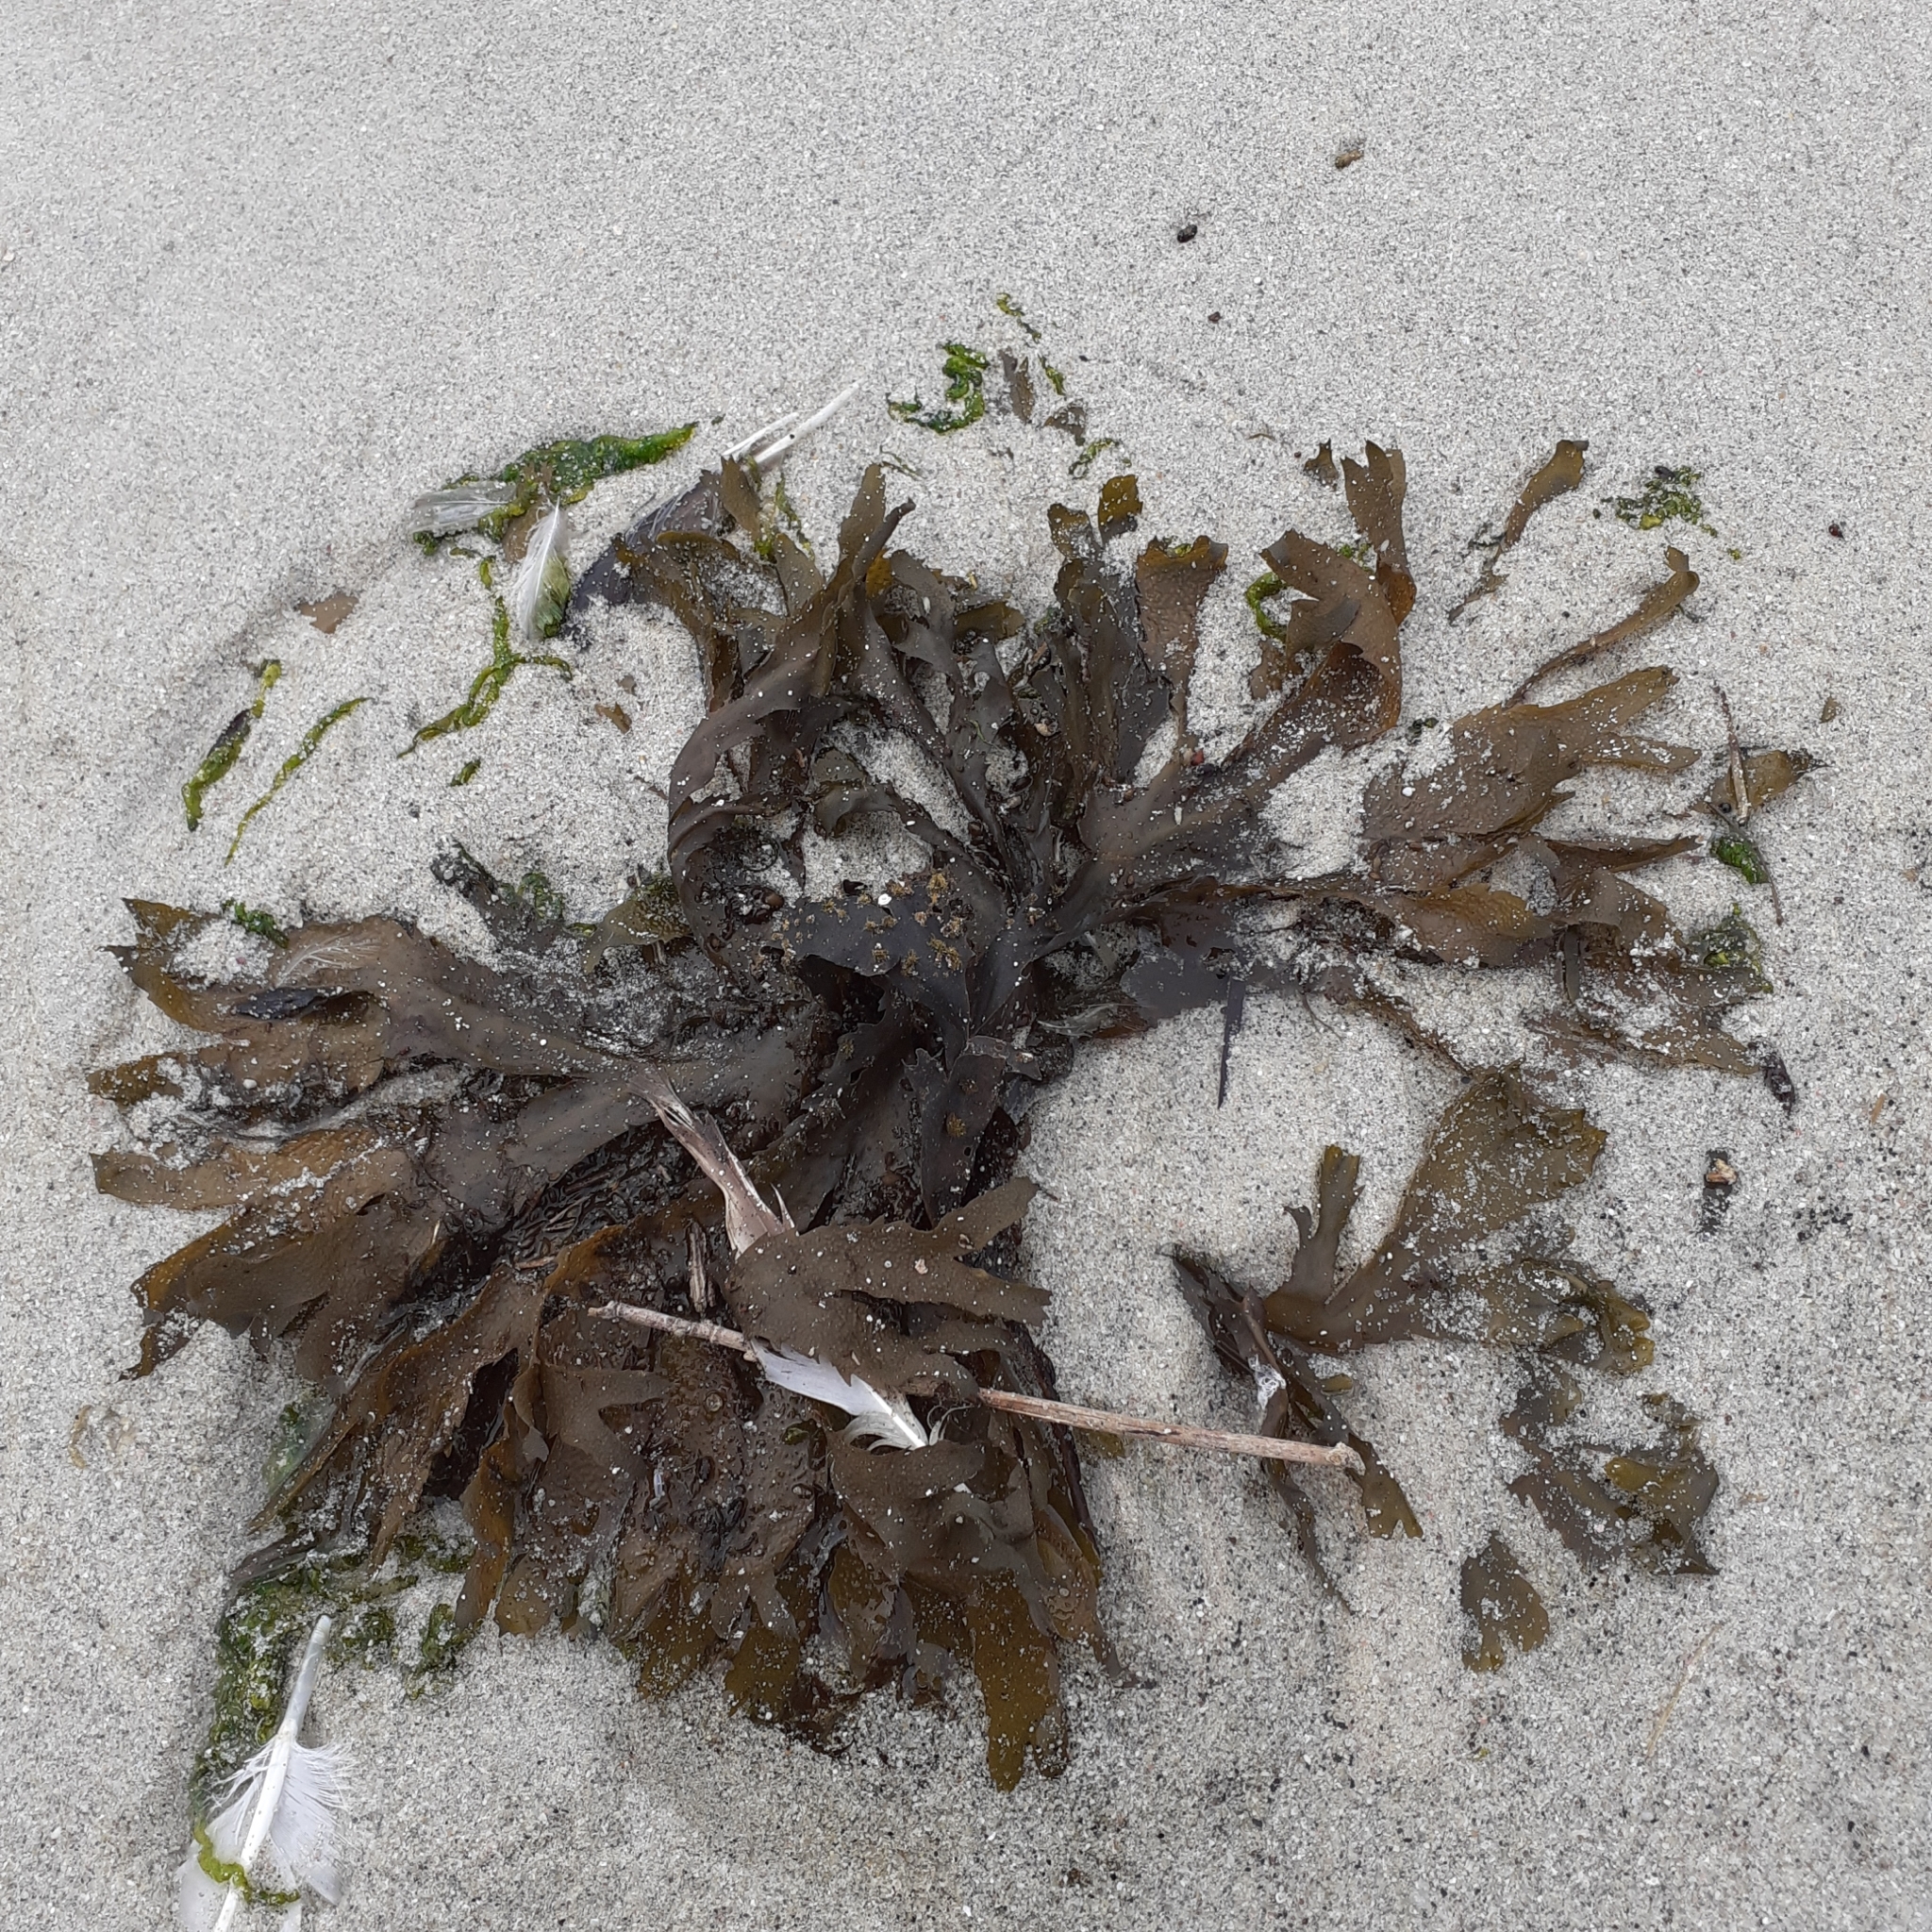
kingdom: Chromista
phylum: Ochrophyta
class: Phaeophyceae
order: Fucales
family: Fucaceae
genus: Fucus
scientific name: Fucus serratus
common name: Toothed wrack
